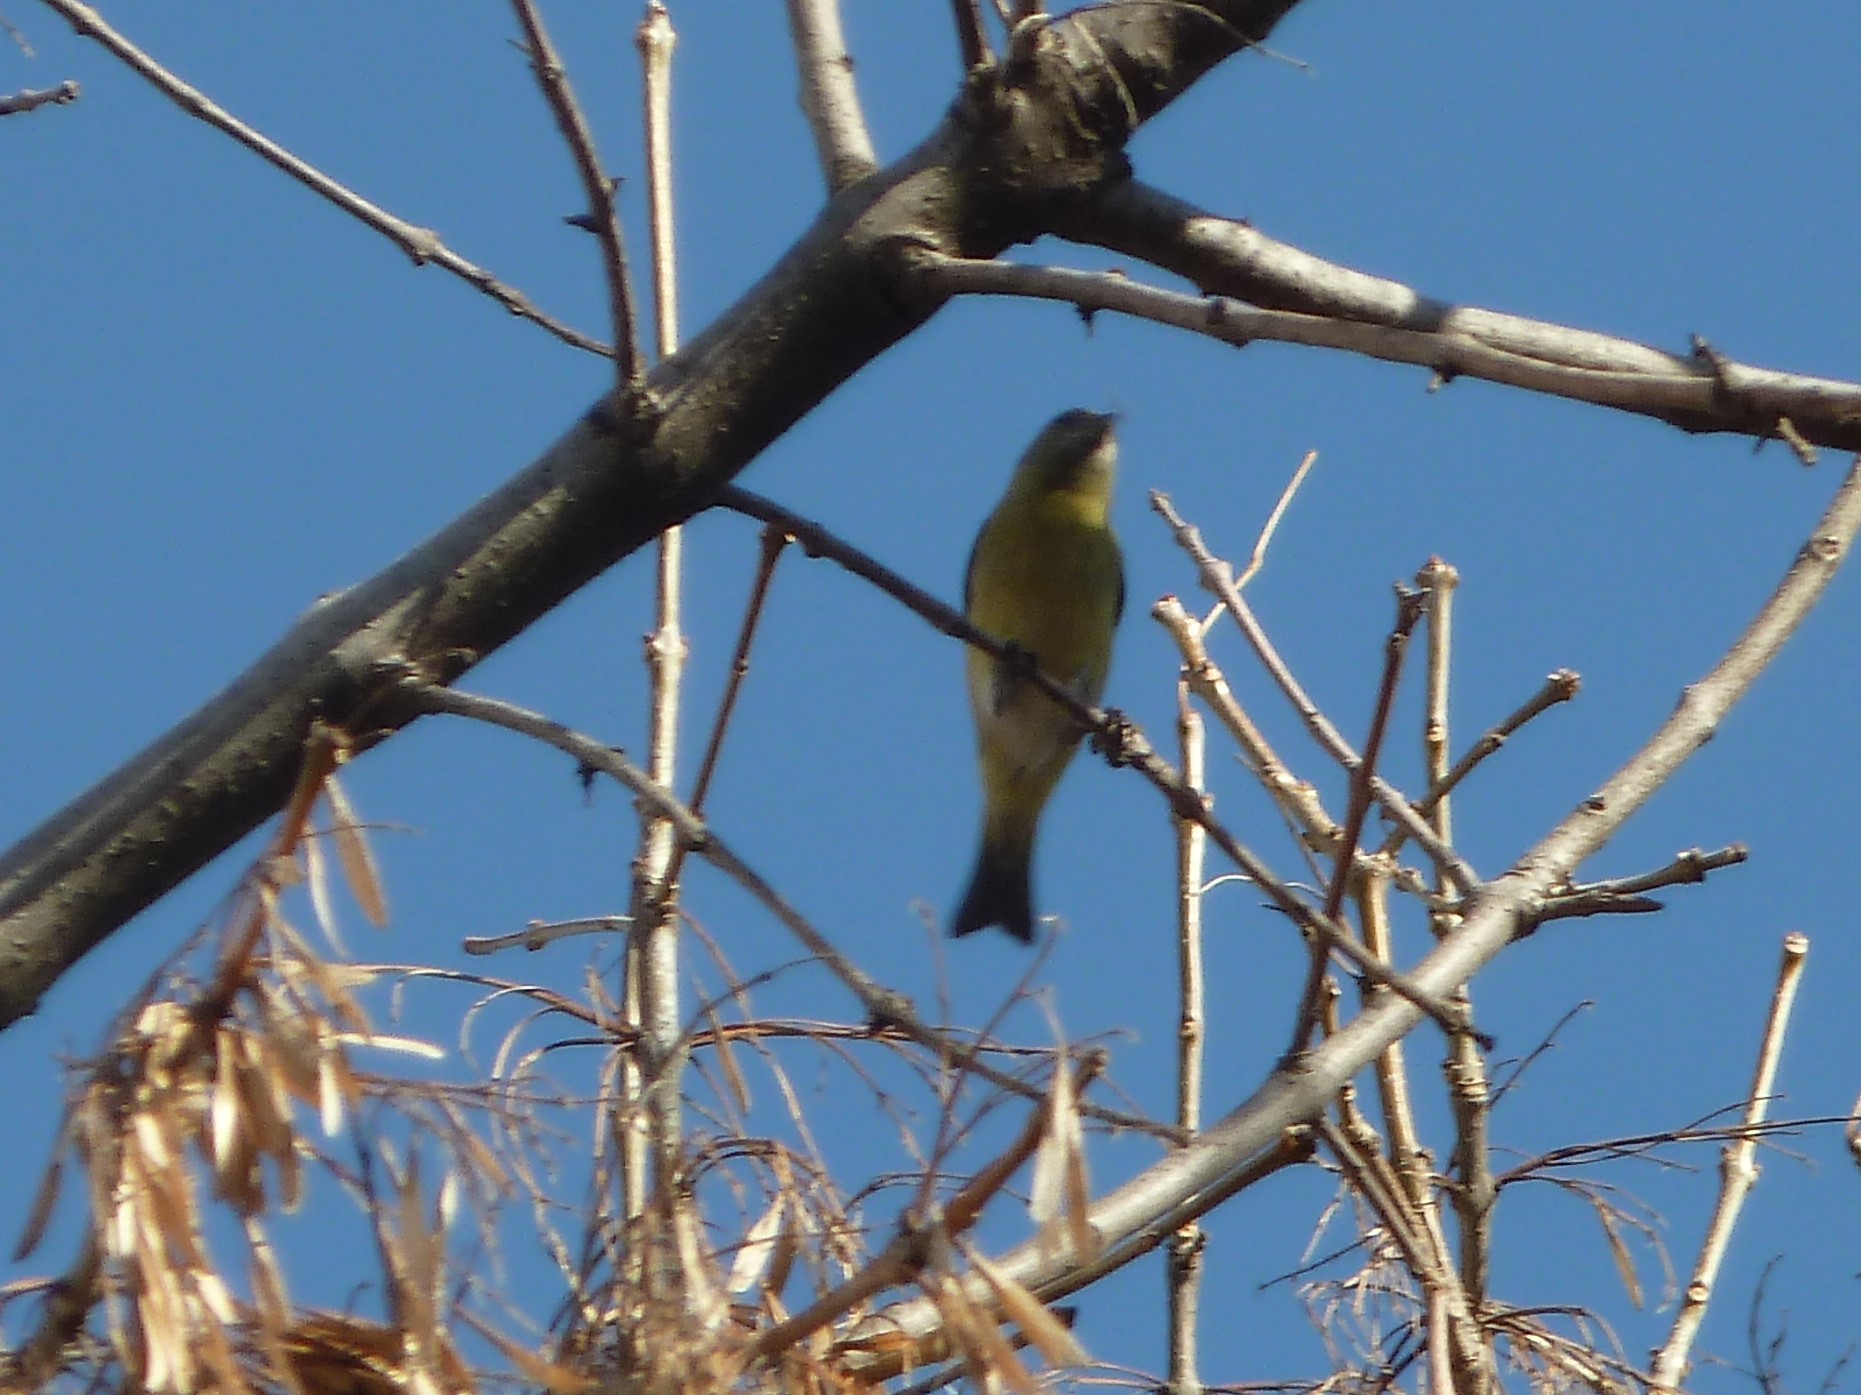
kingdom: Animalia
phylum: Chordata
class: Aves
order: Passeriformes
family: Fringillidae
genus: Spinus
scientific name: Spinus magellanicus
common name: Hooded siskin
